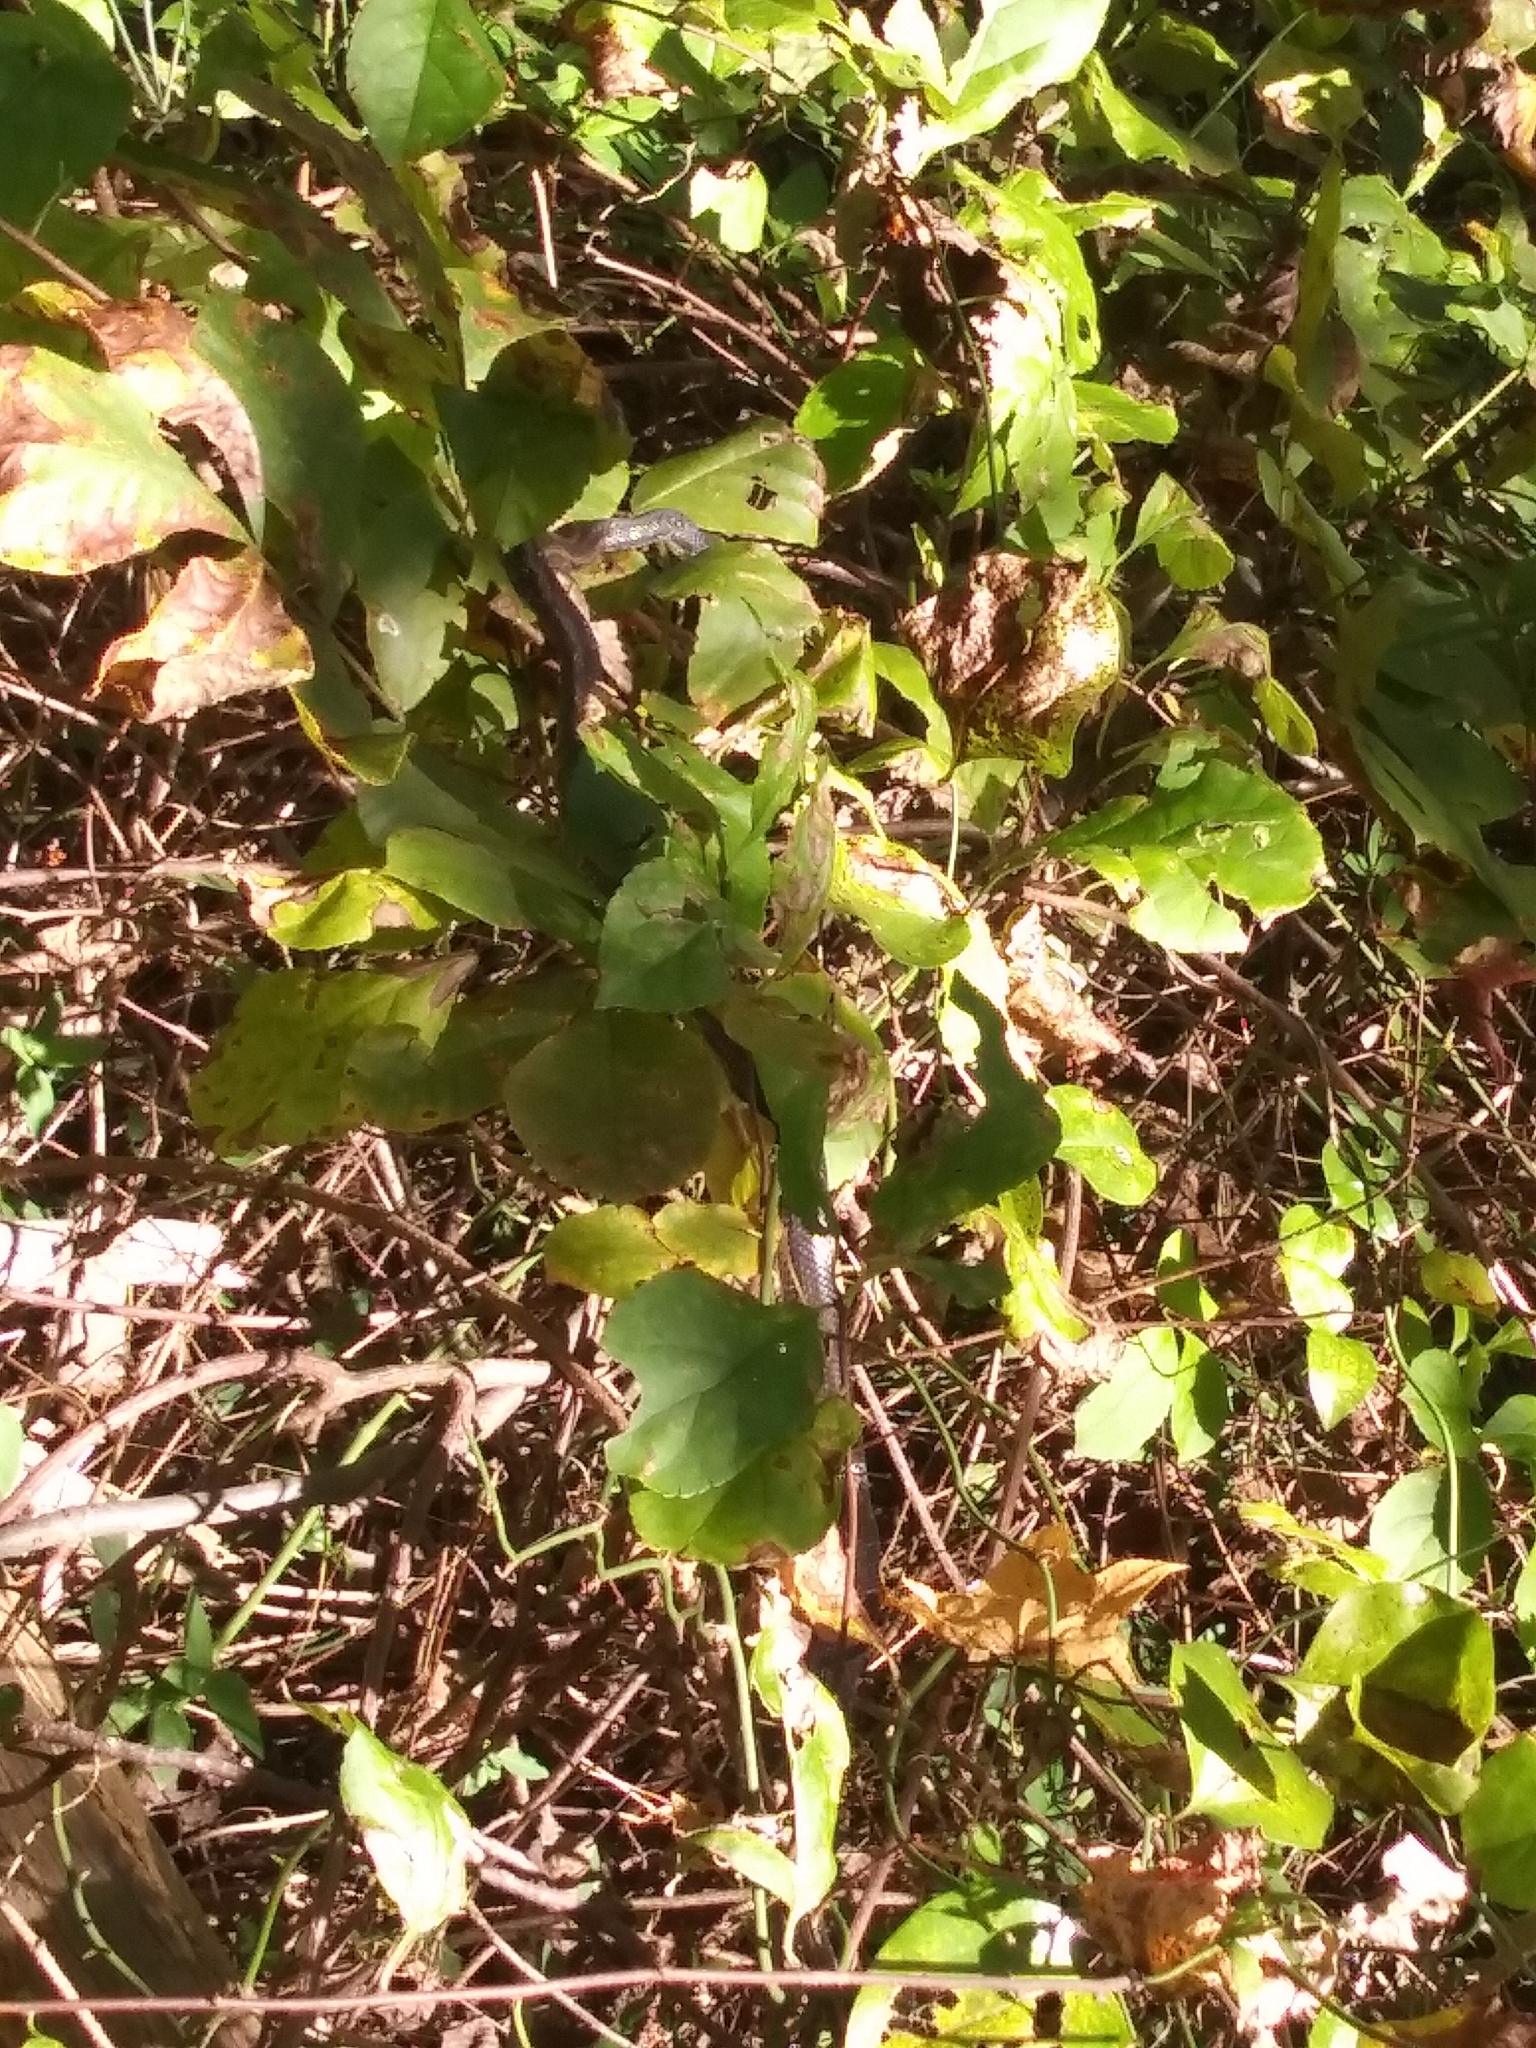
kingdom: Animalia
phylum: Chordata
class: Squamata
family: Colubridae
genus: Pantherophis
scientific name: Pantherophis
